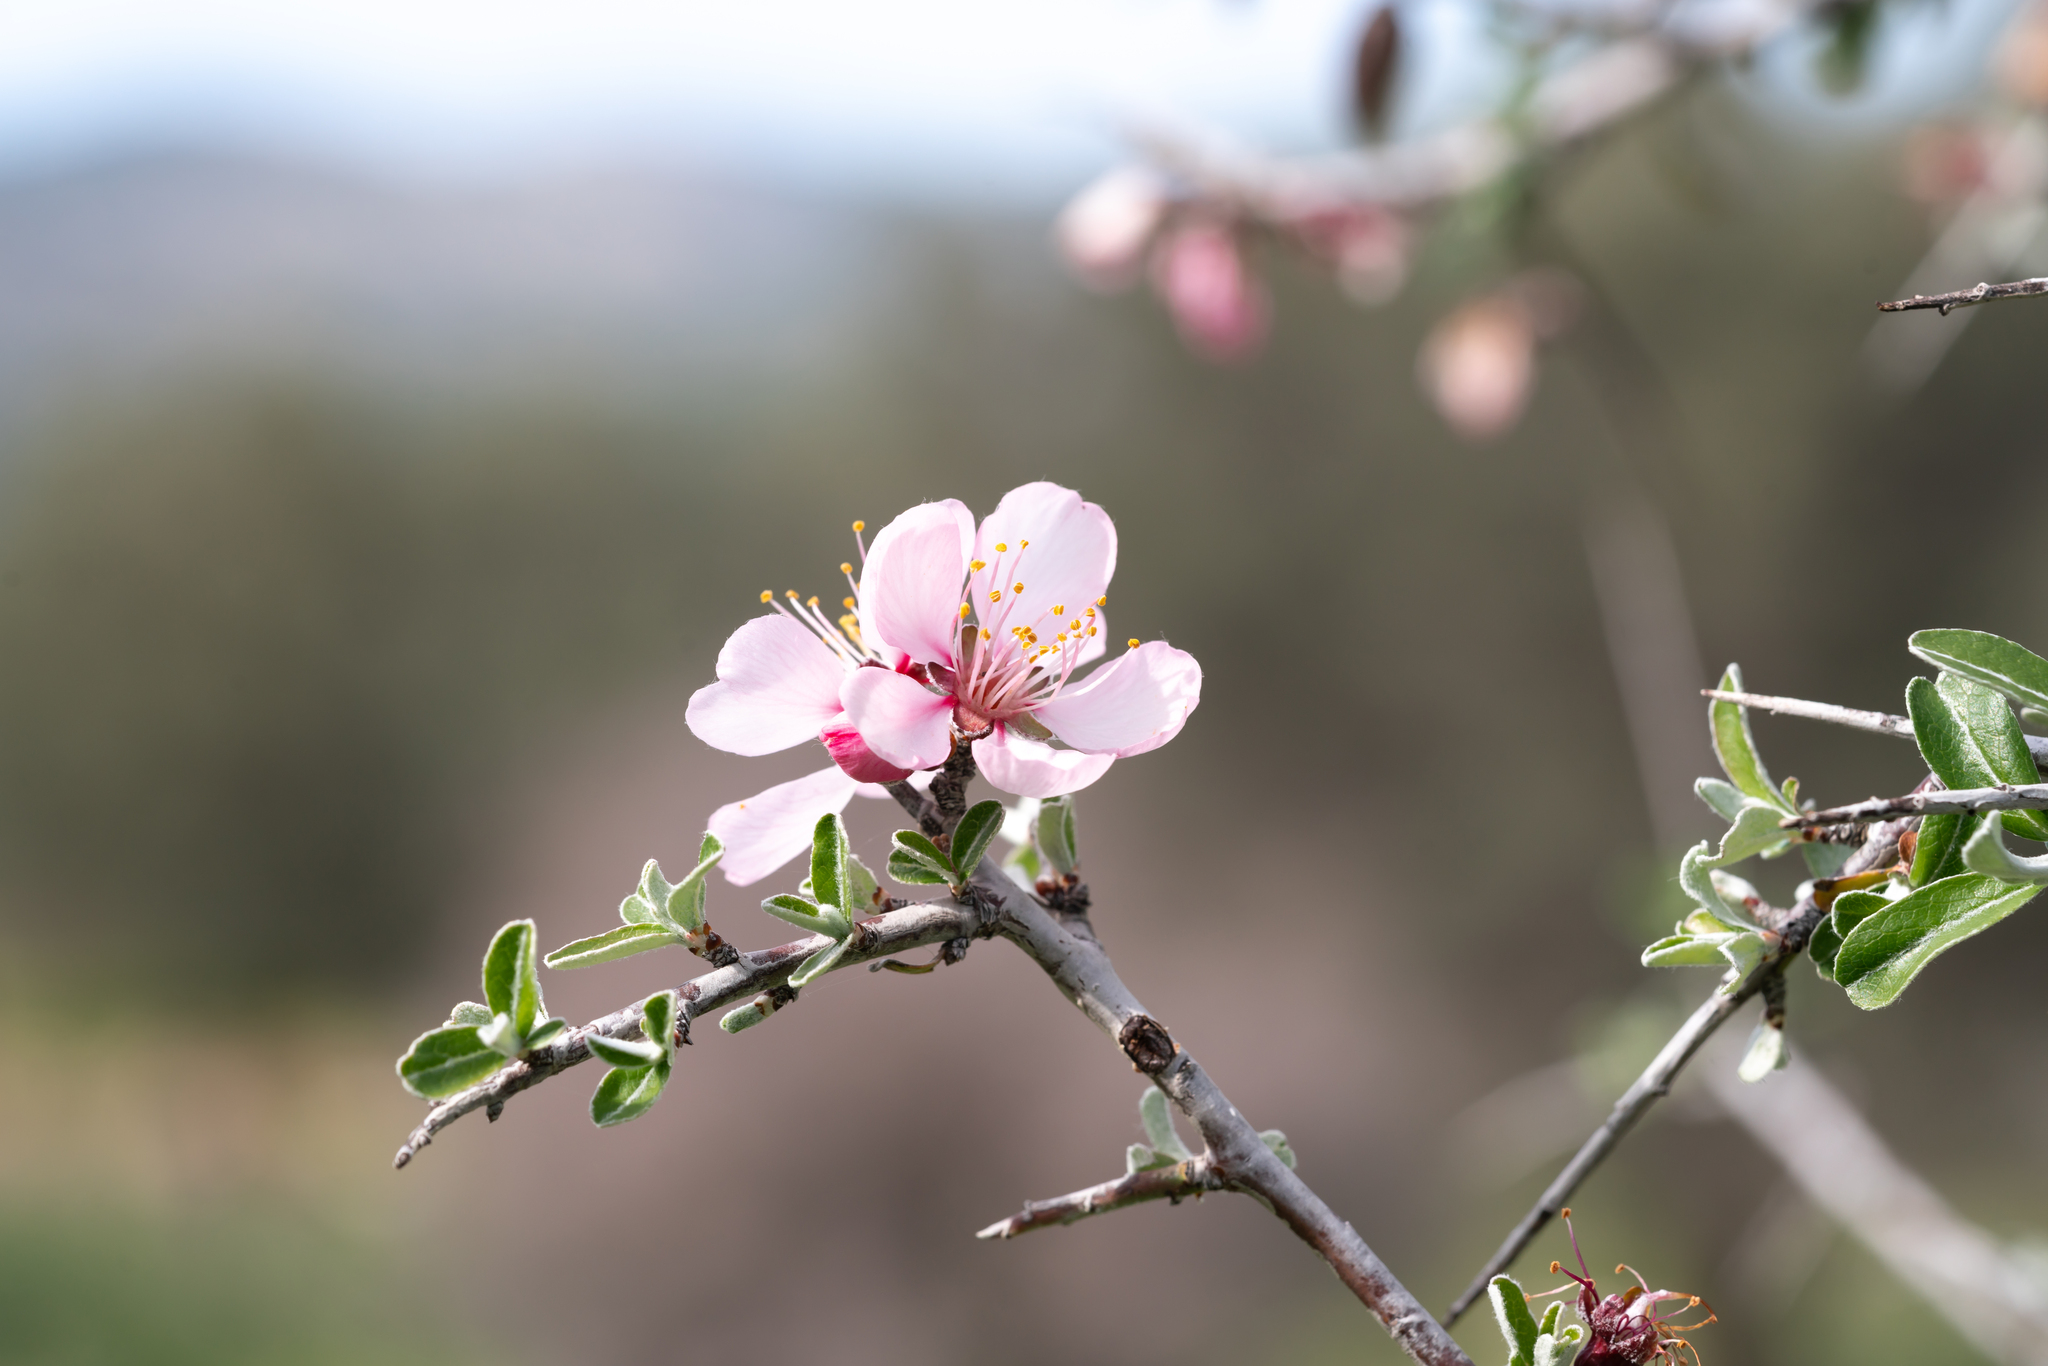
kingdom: Plantae
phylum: Tracheophyta
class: Magnoliopsida
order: Rosales
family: Rosaceae
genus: Prunus
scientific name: Prunus discolor
